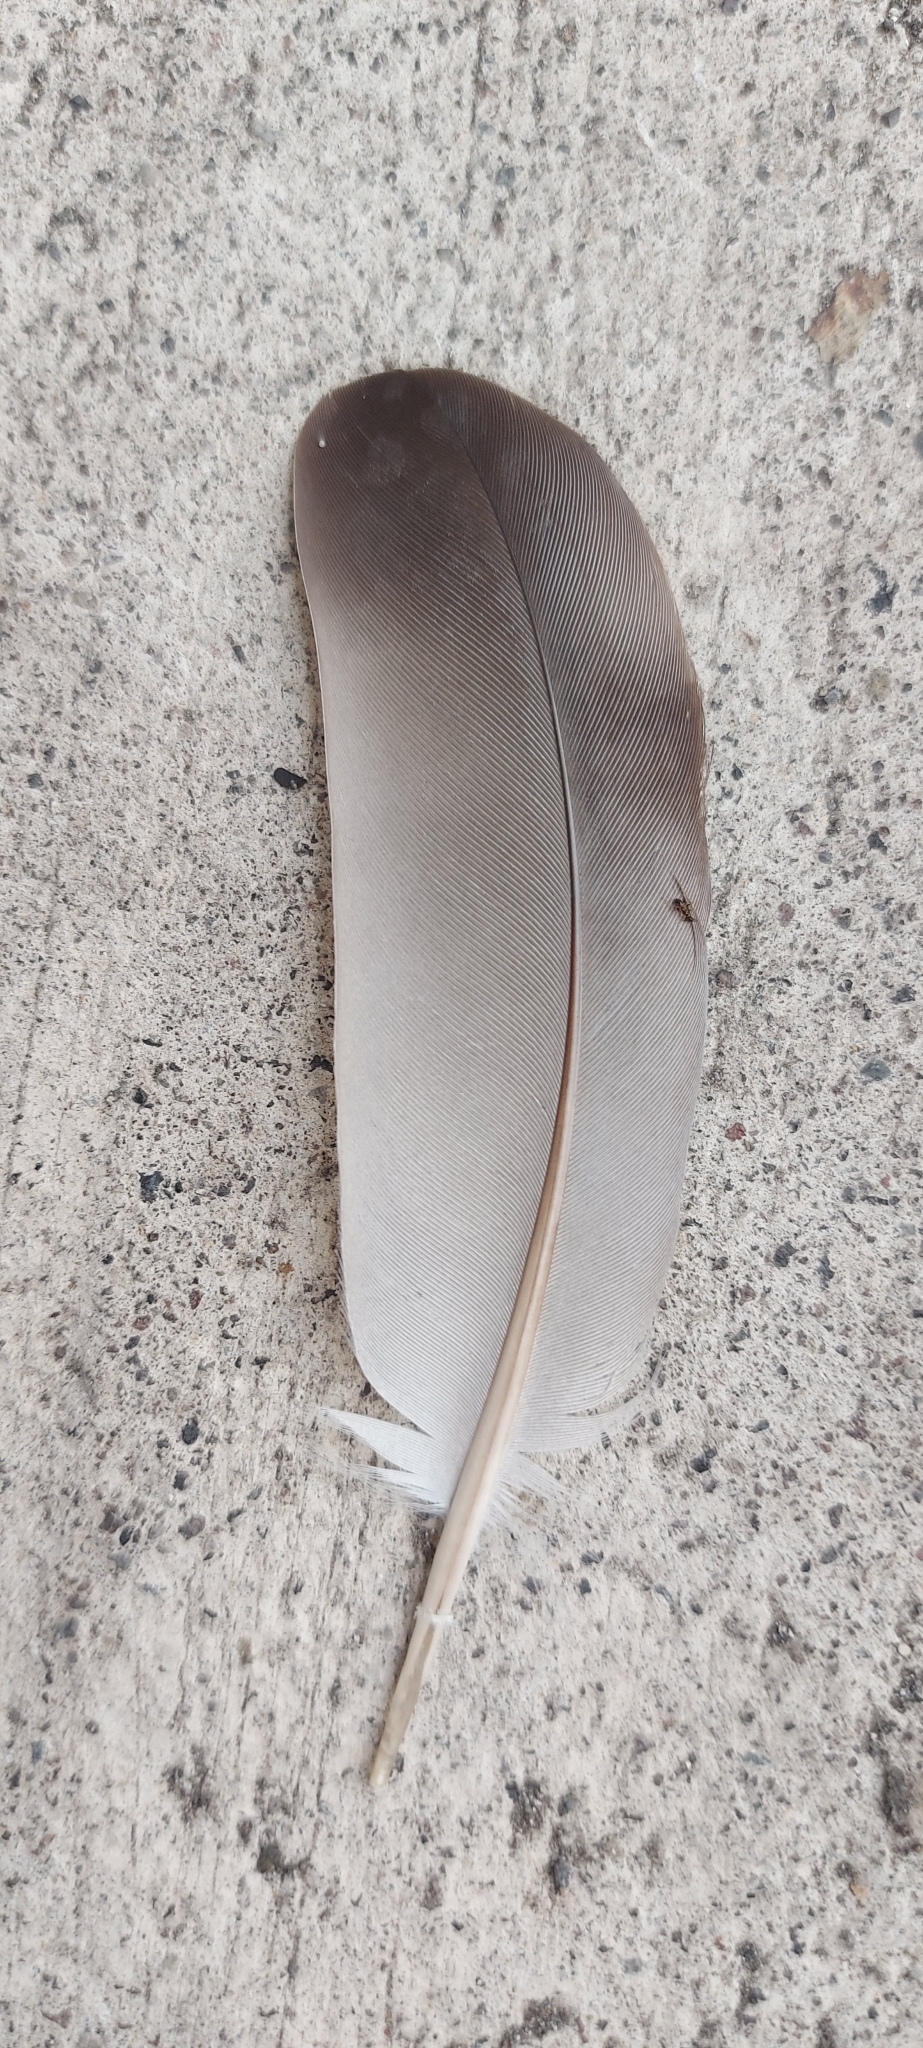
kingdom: Animalia
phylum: Chordata
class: Aves
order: Columbiformes
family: Columbidae
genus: Columba
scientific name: Columba livia
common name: Rock pigeon
